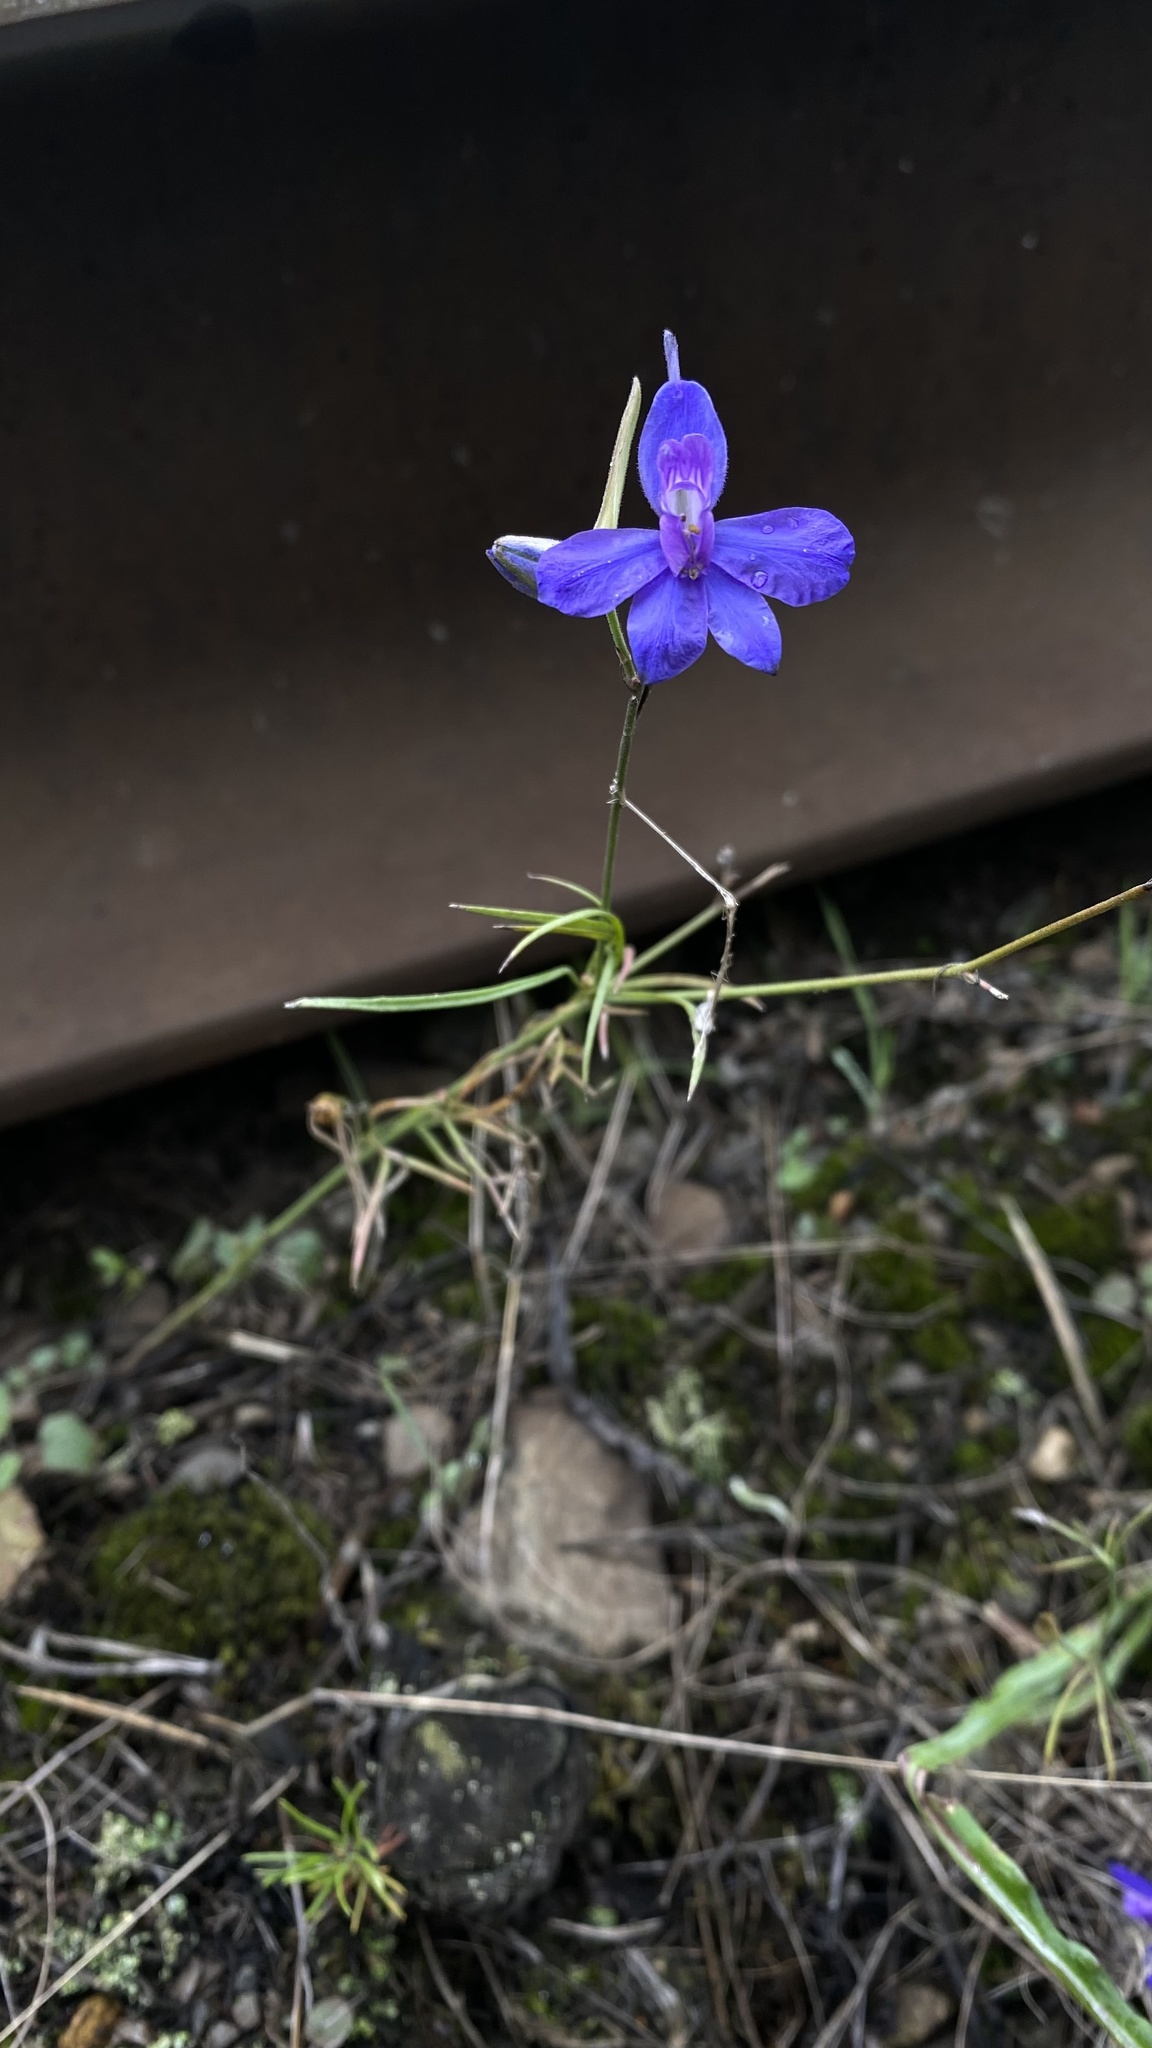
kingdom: Plantae
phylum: Tracheophyta
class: Magnoliopsida
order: Ranunculales
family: Ranunculaceae
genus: Delphinium
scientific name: Delphinium consolida
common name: Branching larkspur
